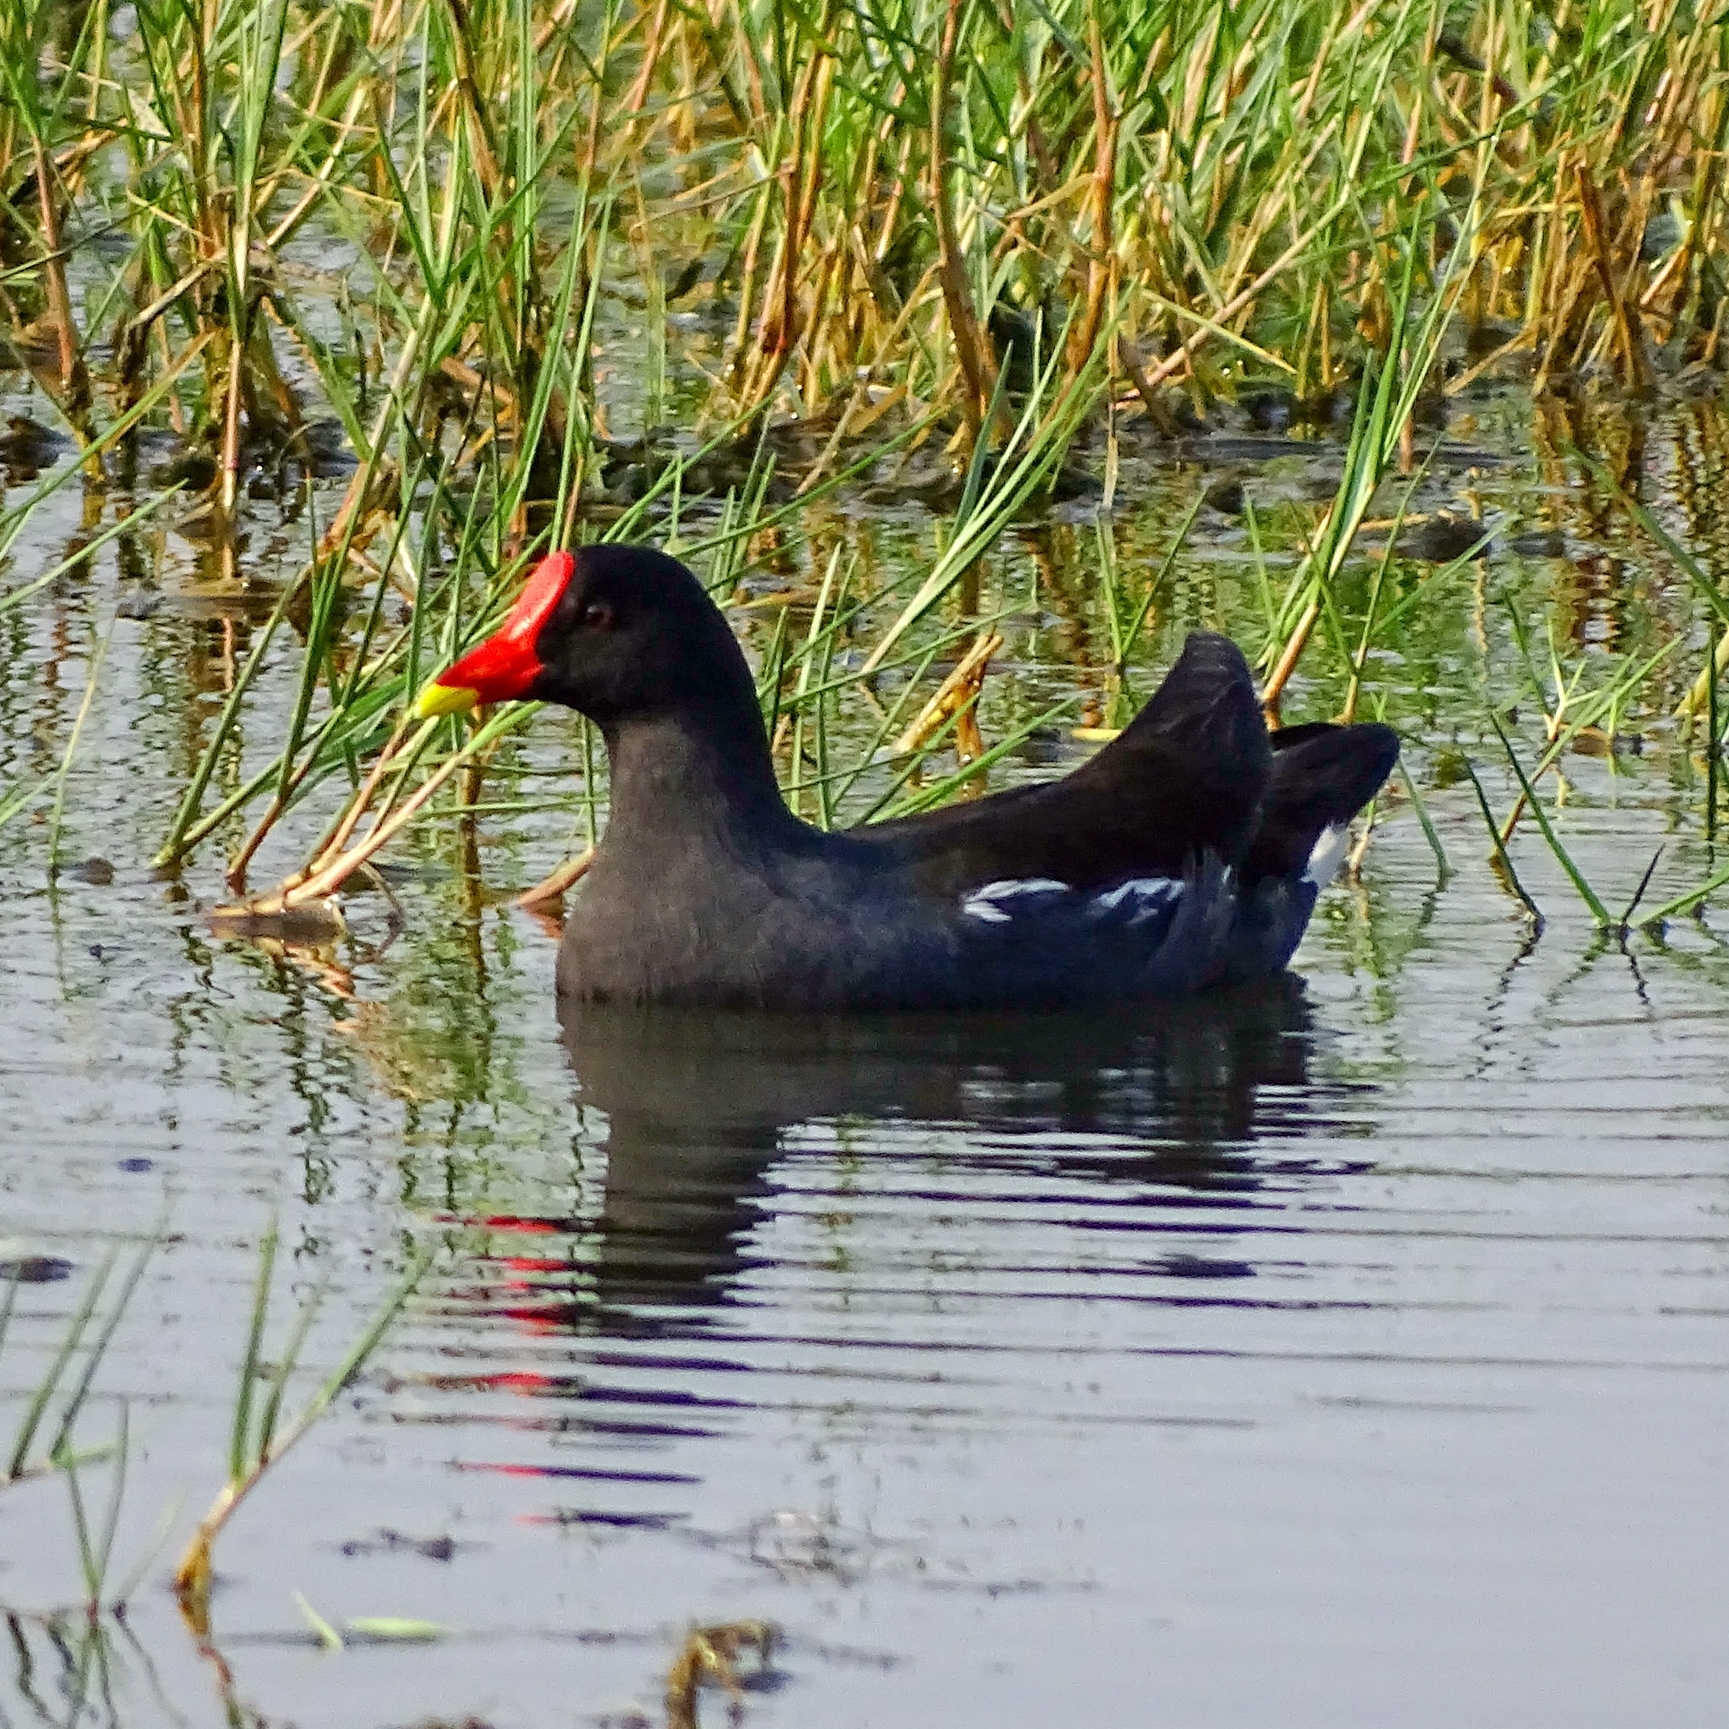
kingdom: Animalia
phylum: Chordata
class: Aves
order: Gruiformes
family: Rallidae
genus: Gallinula
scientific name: Gallinula chloropus
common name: Common moorhen
